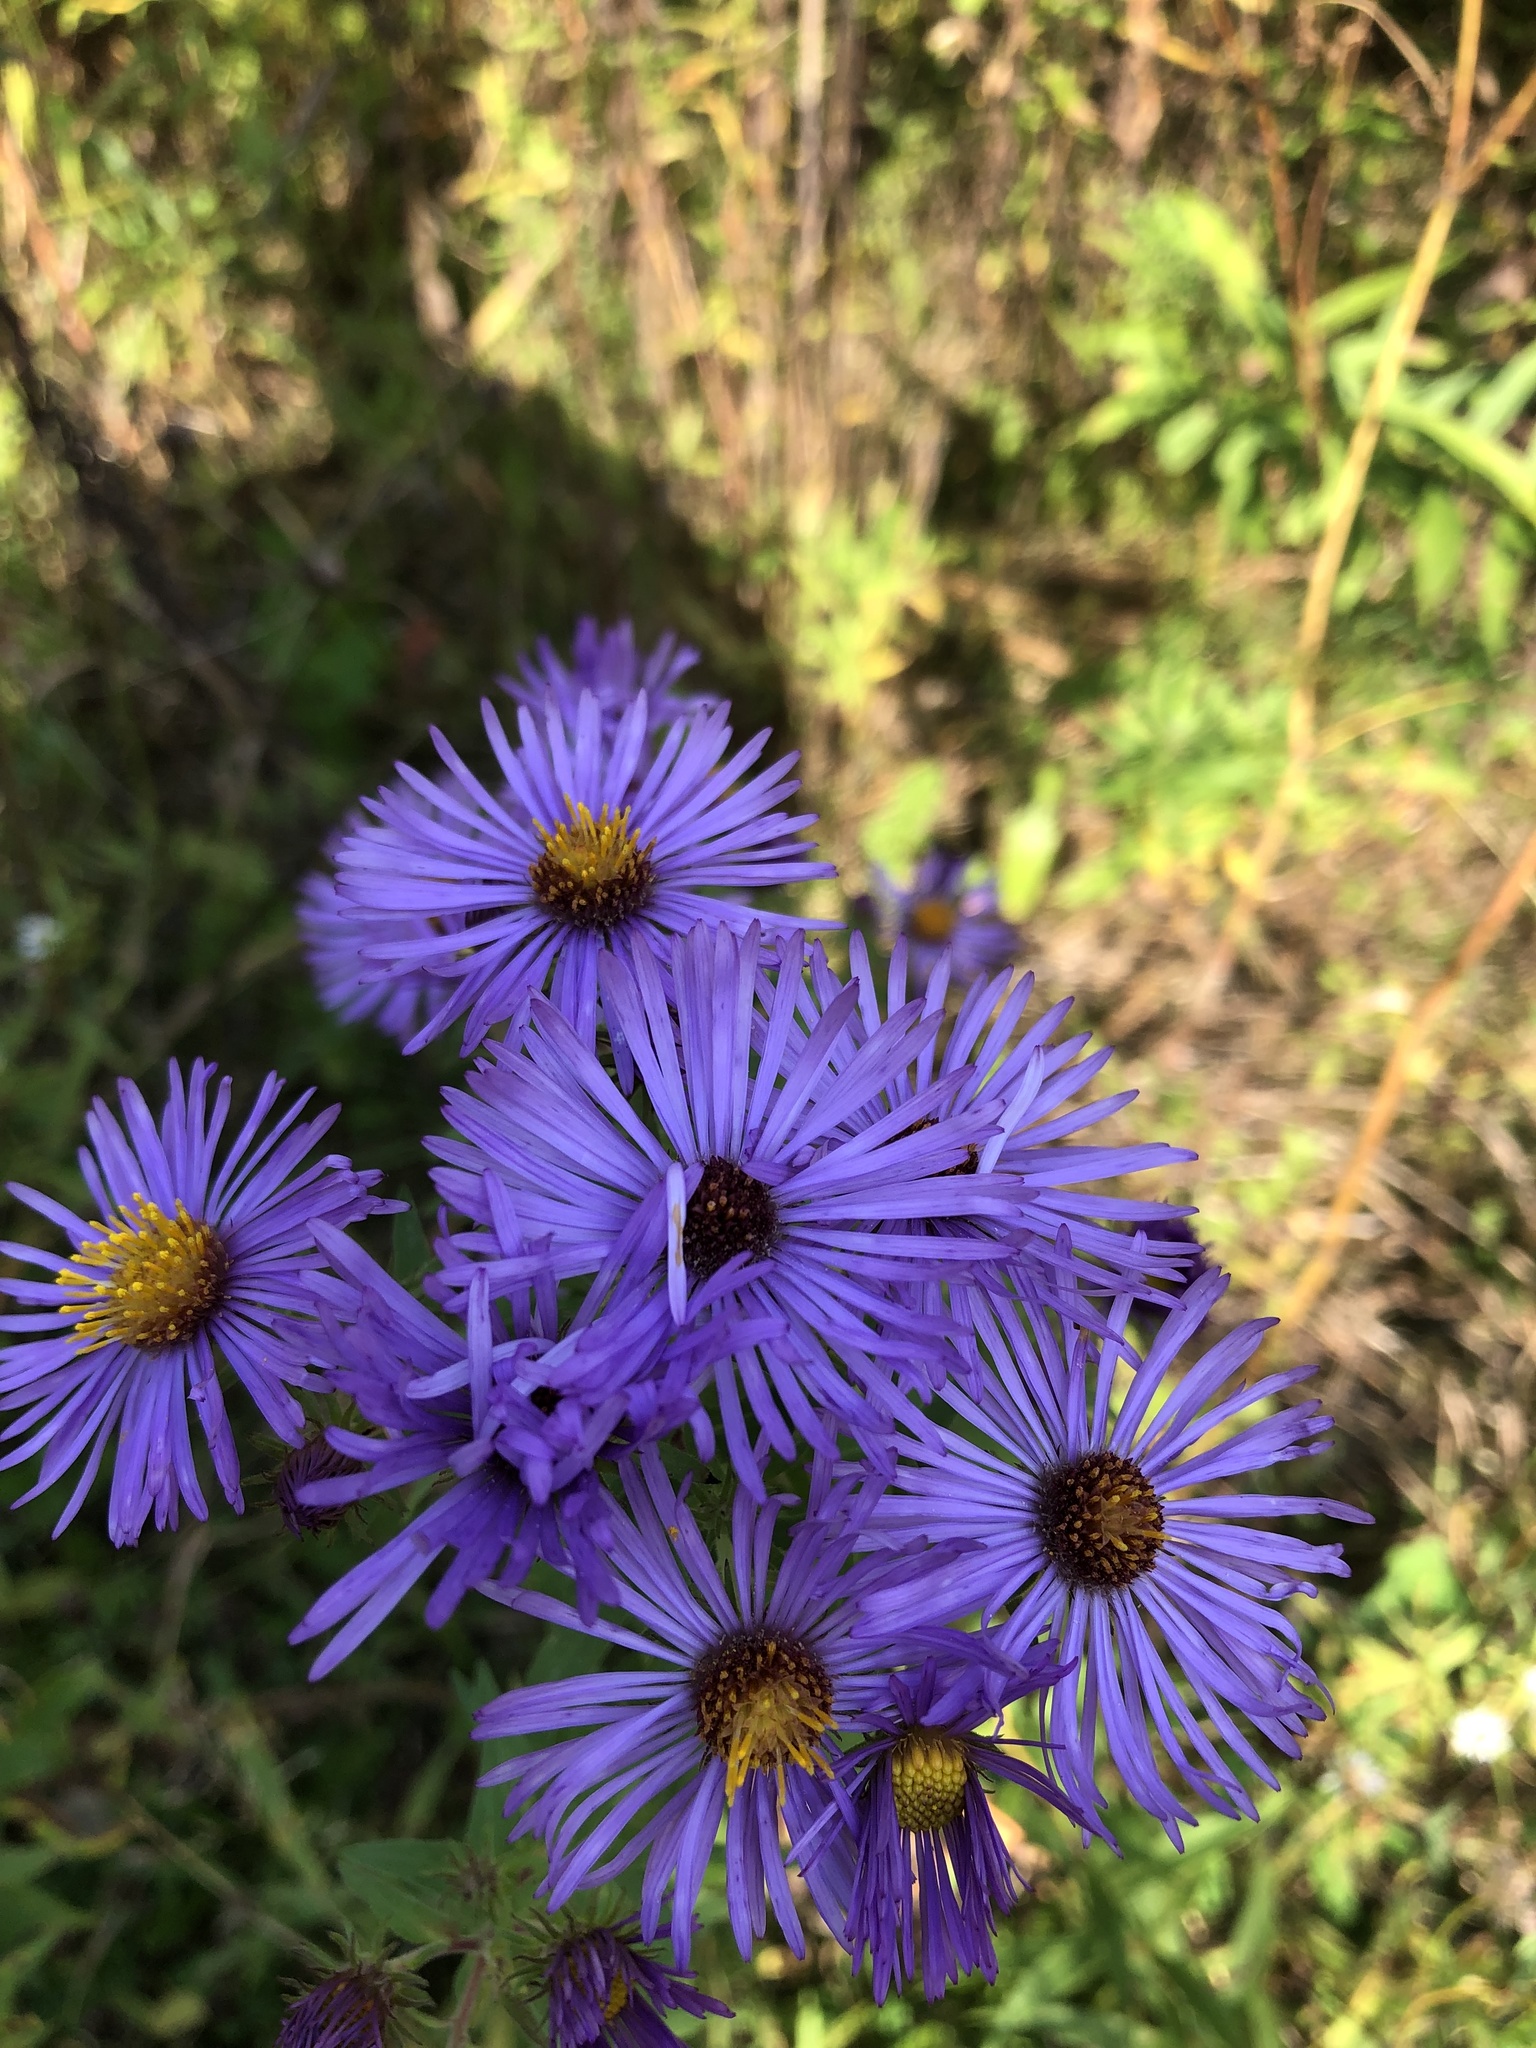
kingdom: Plantae
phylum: Tracheophyta
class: Magnoliopsida
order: Asterales
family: Asteraceae
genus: Symphyotrichum
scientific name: Symphyotrichum novae-angliae
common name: Michaelmas daisy
